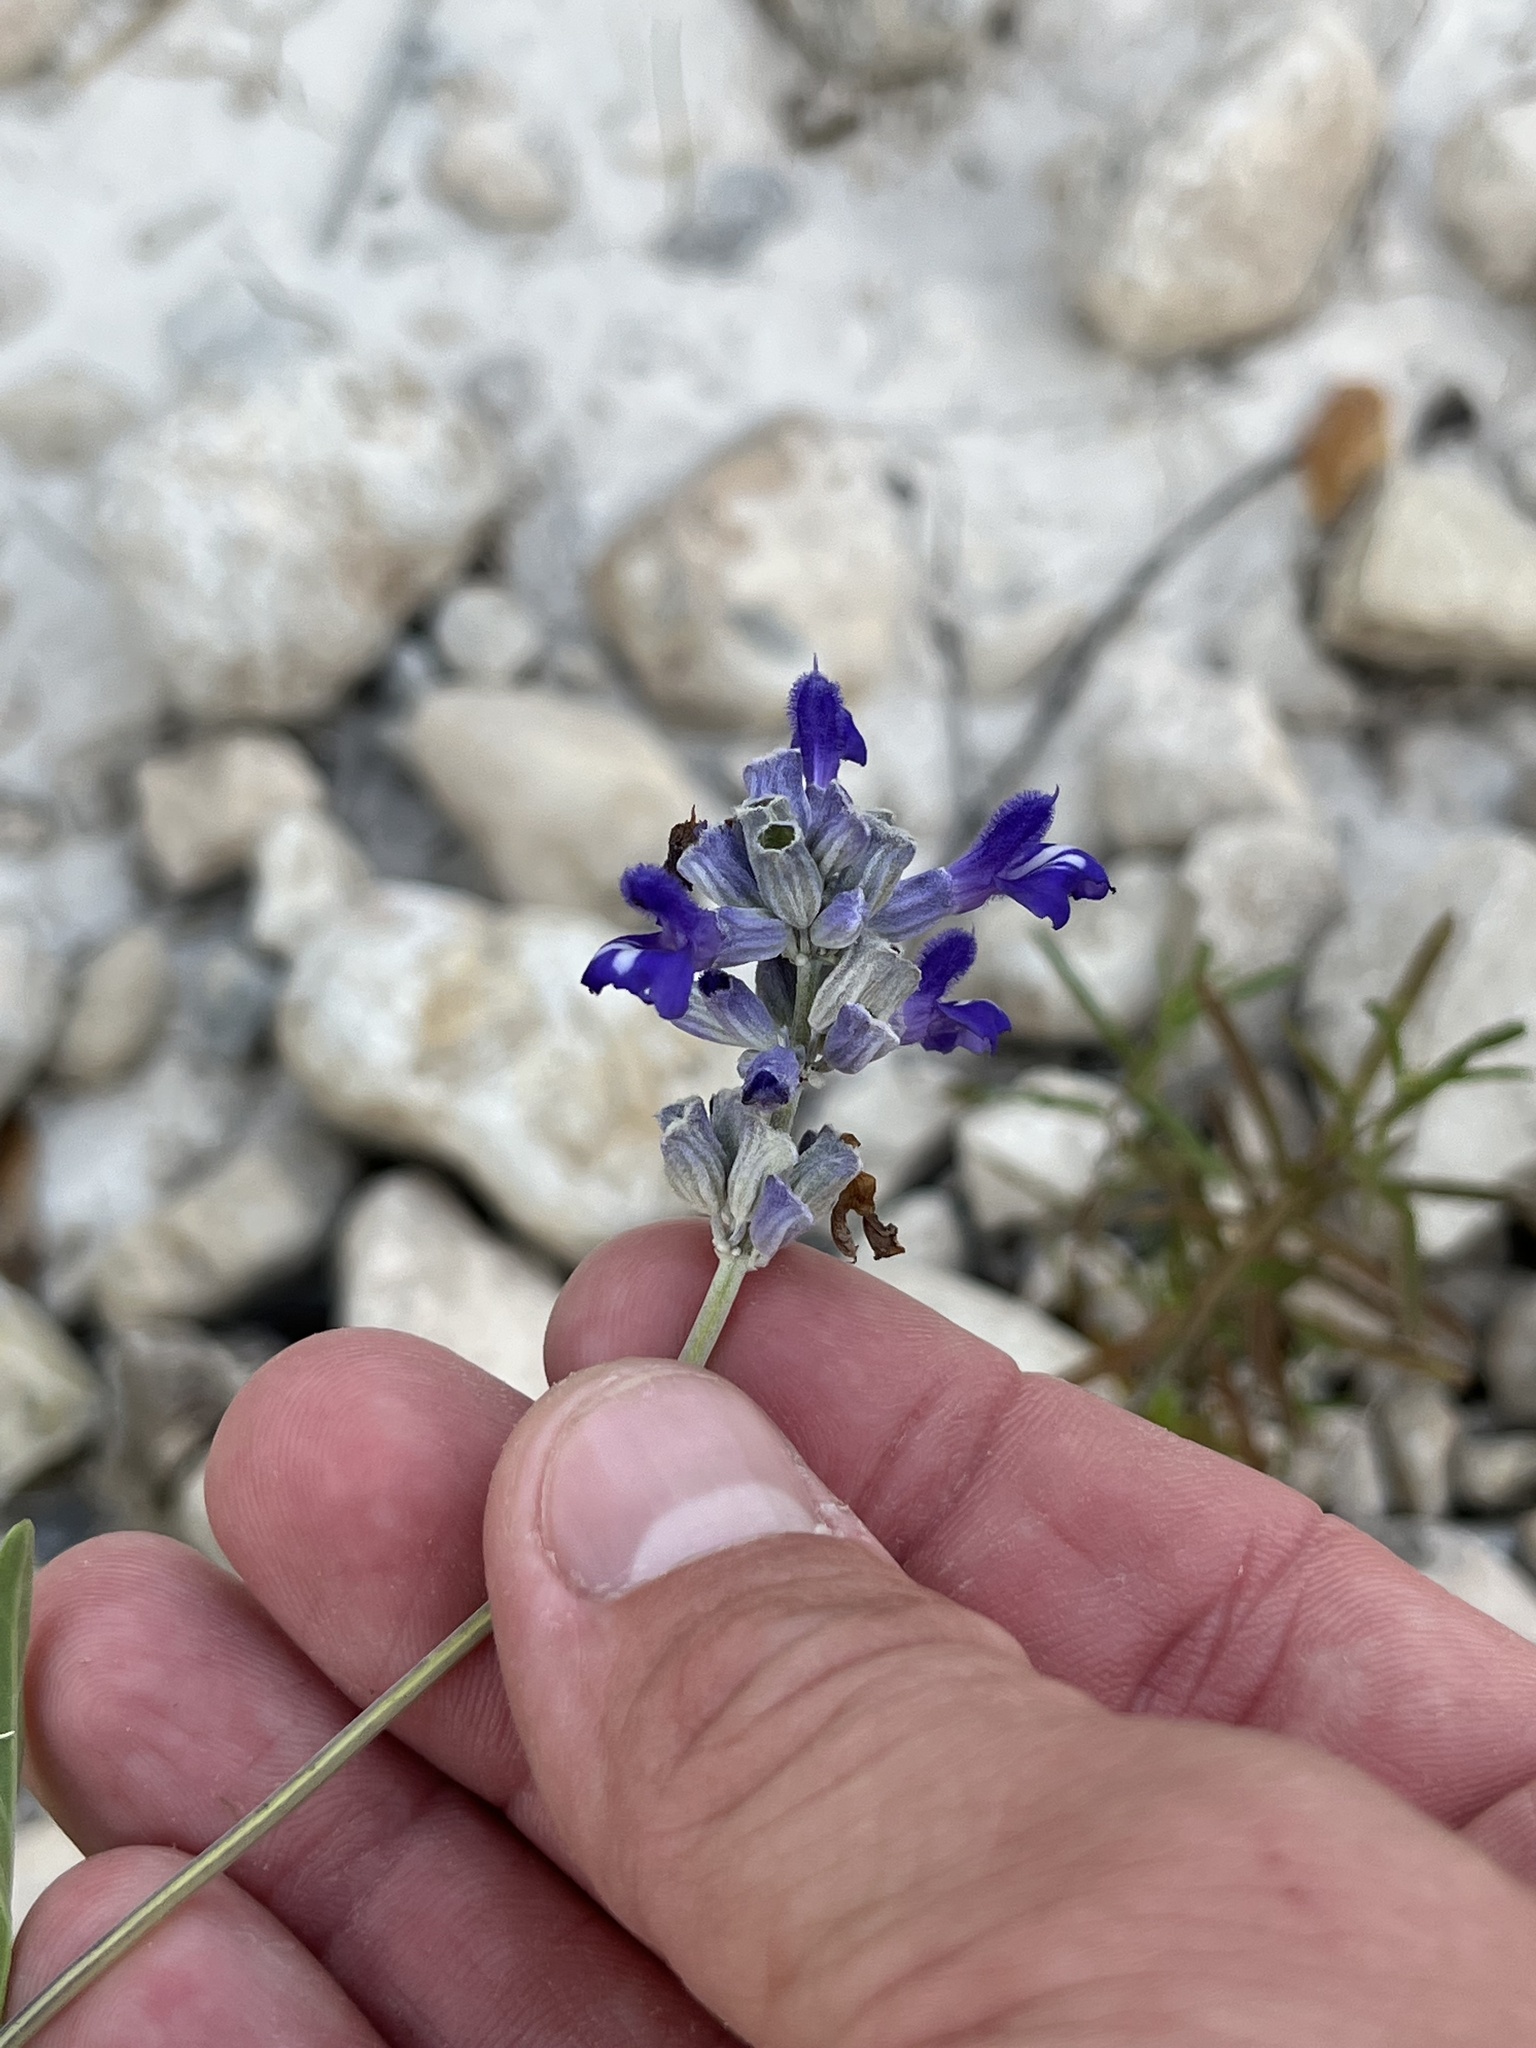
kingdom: Plantae
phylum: Tracheophyta
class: Magnoliopsida
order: Lamiales
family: Lamiaceae
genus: Salvia
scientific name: Salvia farinacea
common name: Mealy sage
